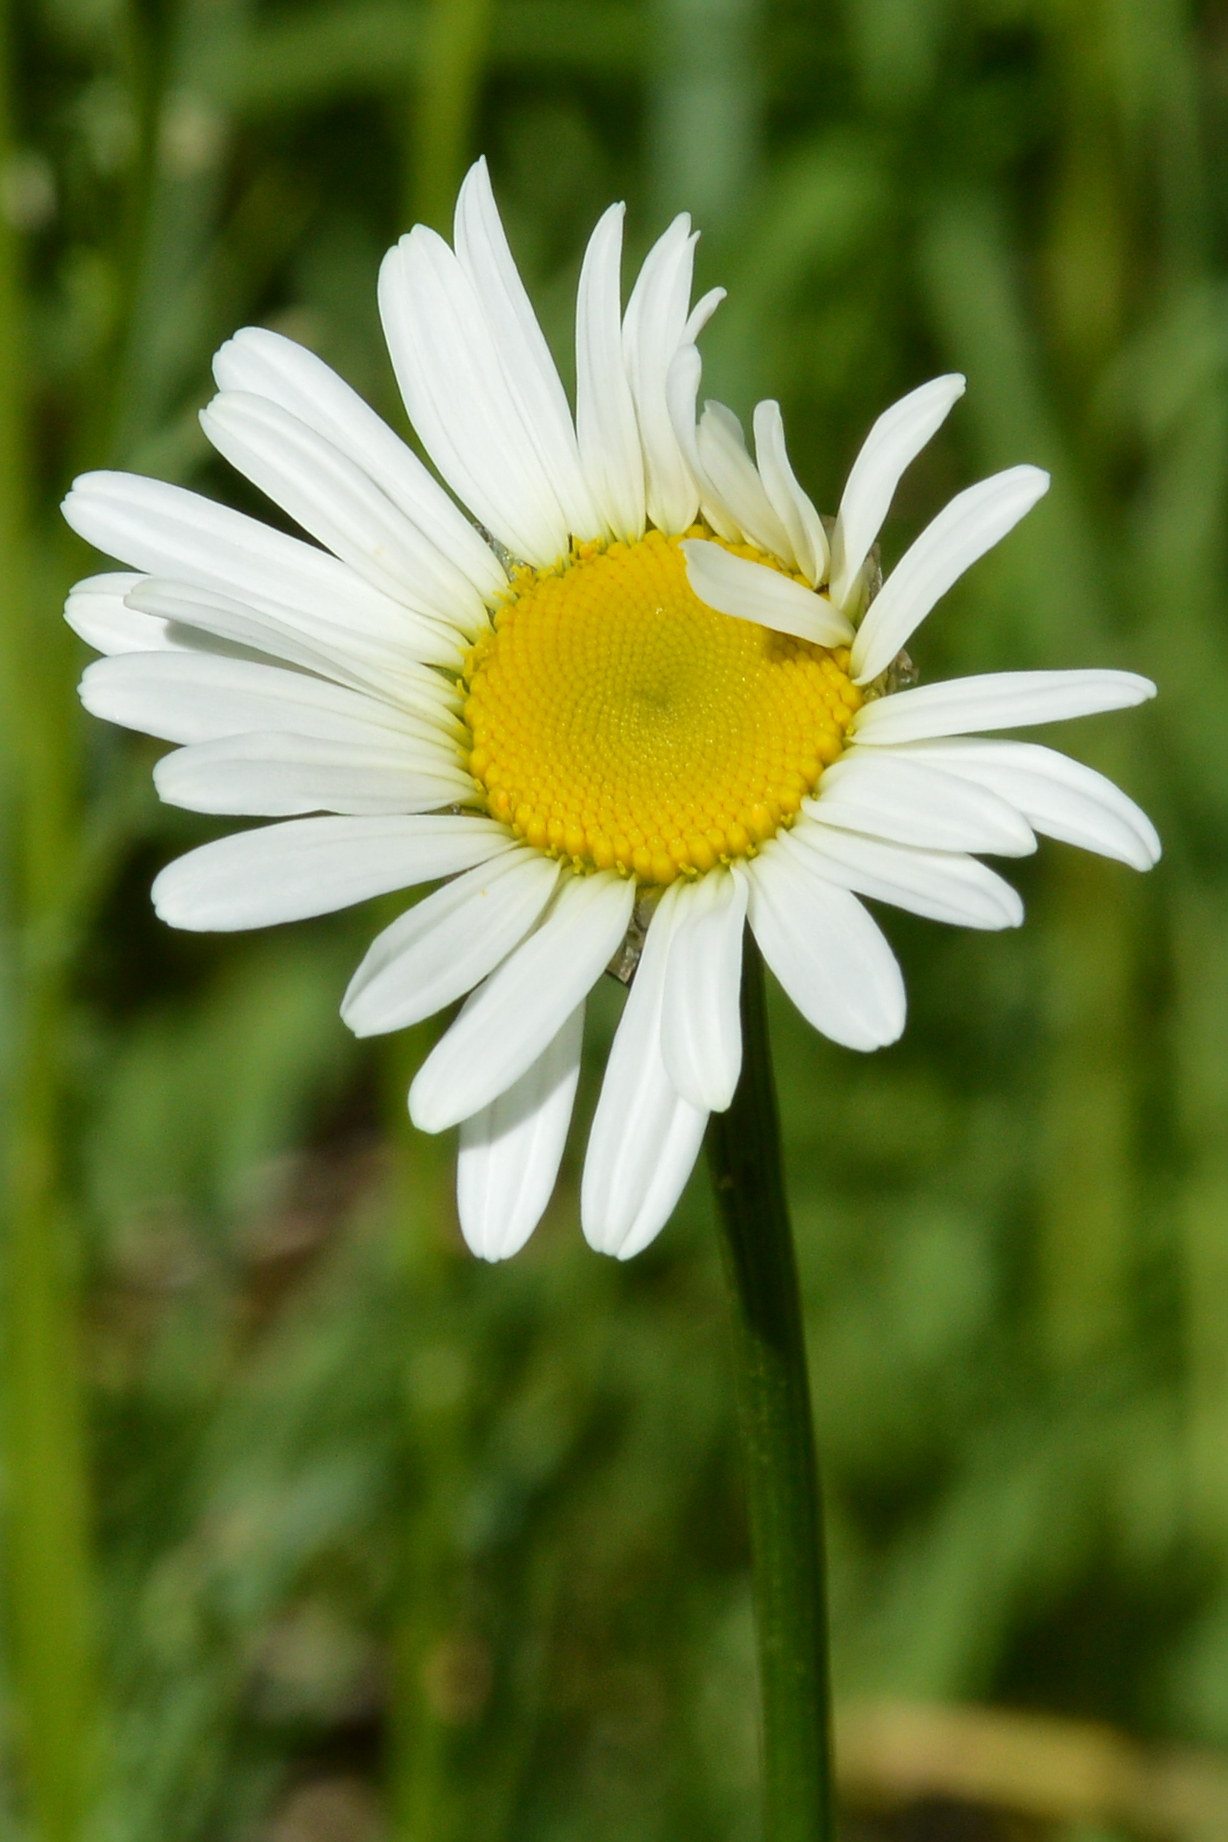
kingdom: Plantae
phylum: Tracheophyta
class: Magnoliopsida
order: Asterales
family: Asteraceae
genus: Leucanthemum
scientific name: Leucanthemum vulgare
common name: Oxeye daisy
